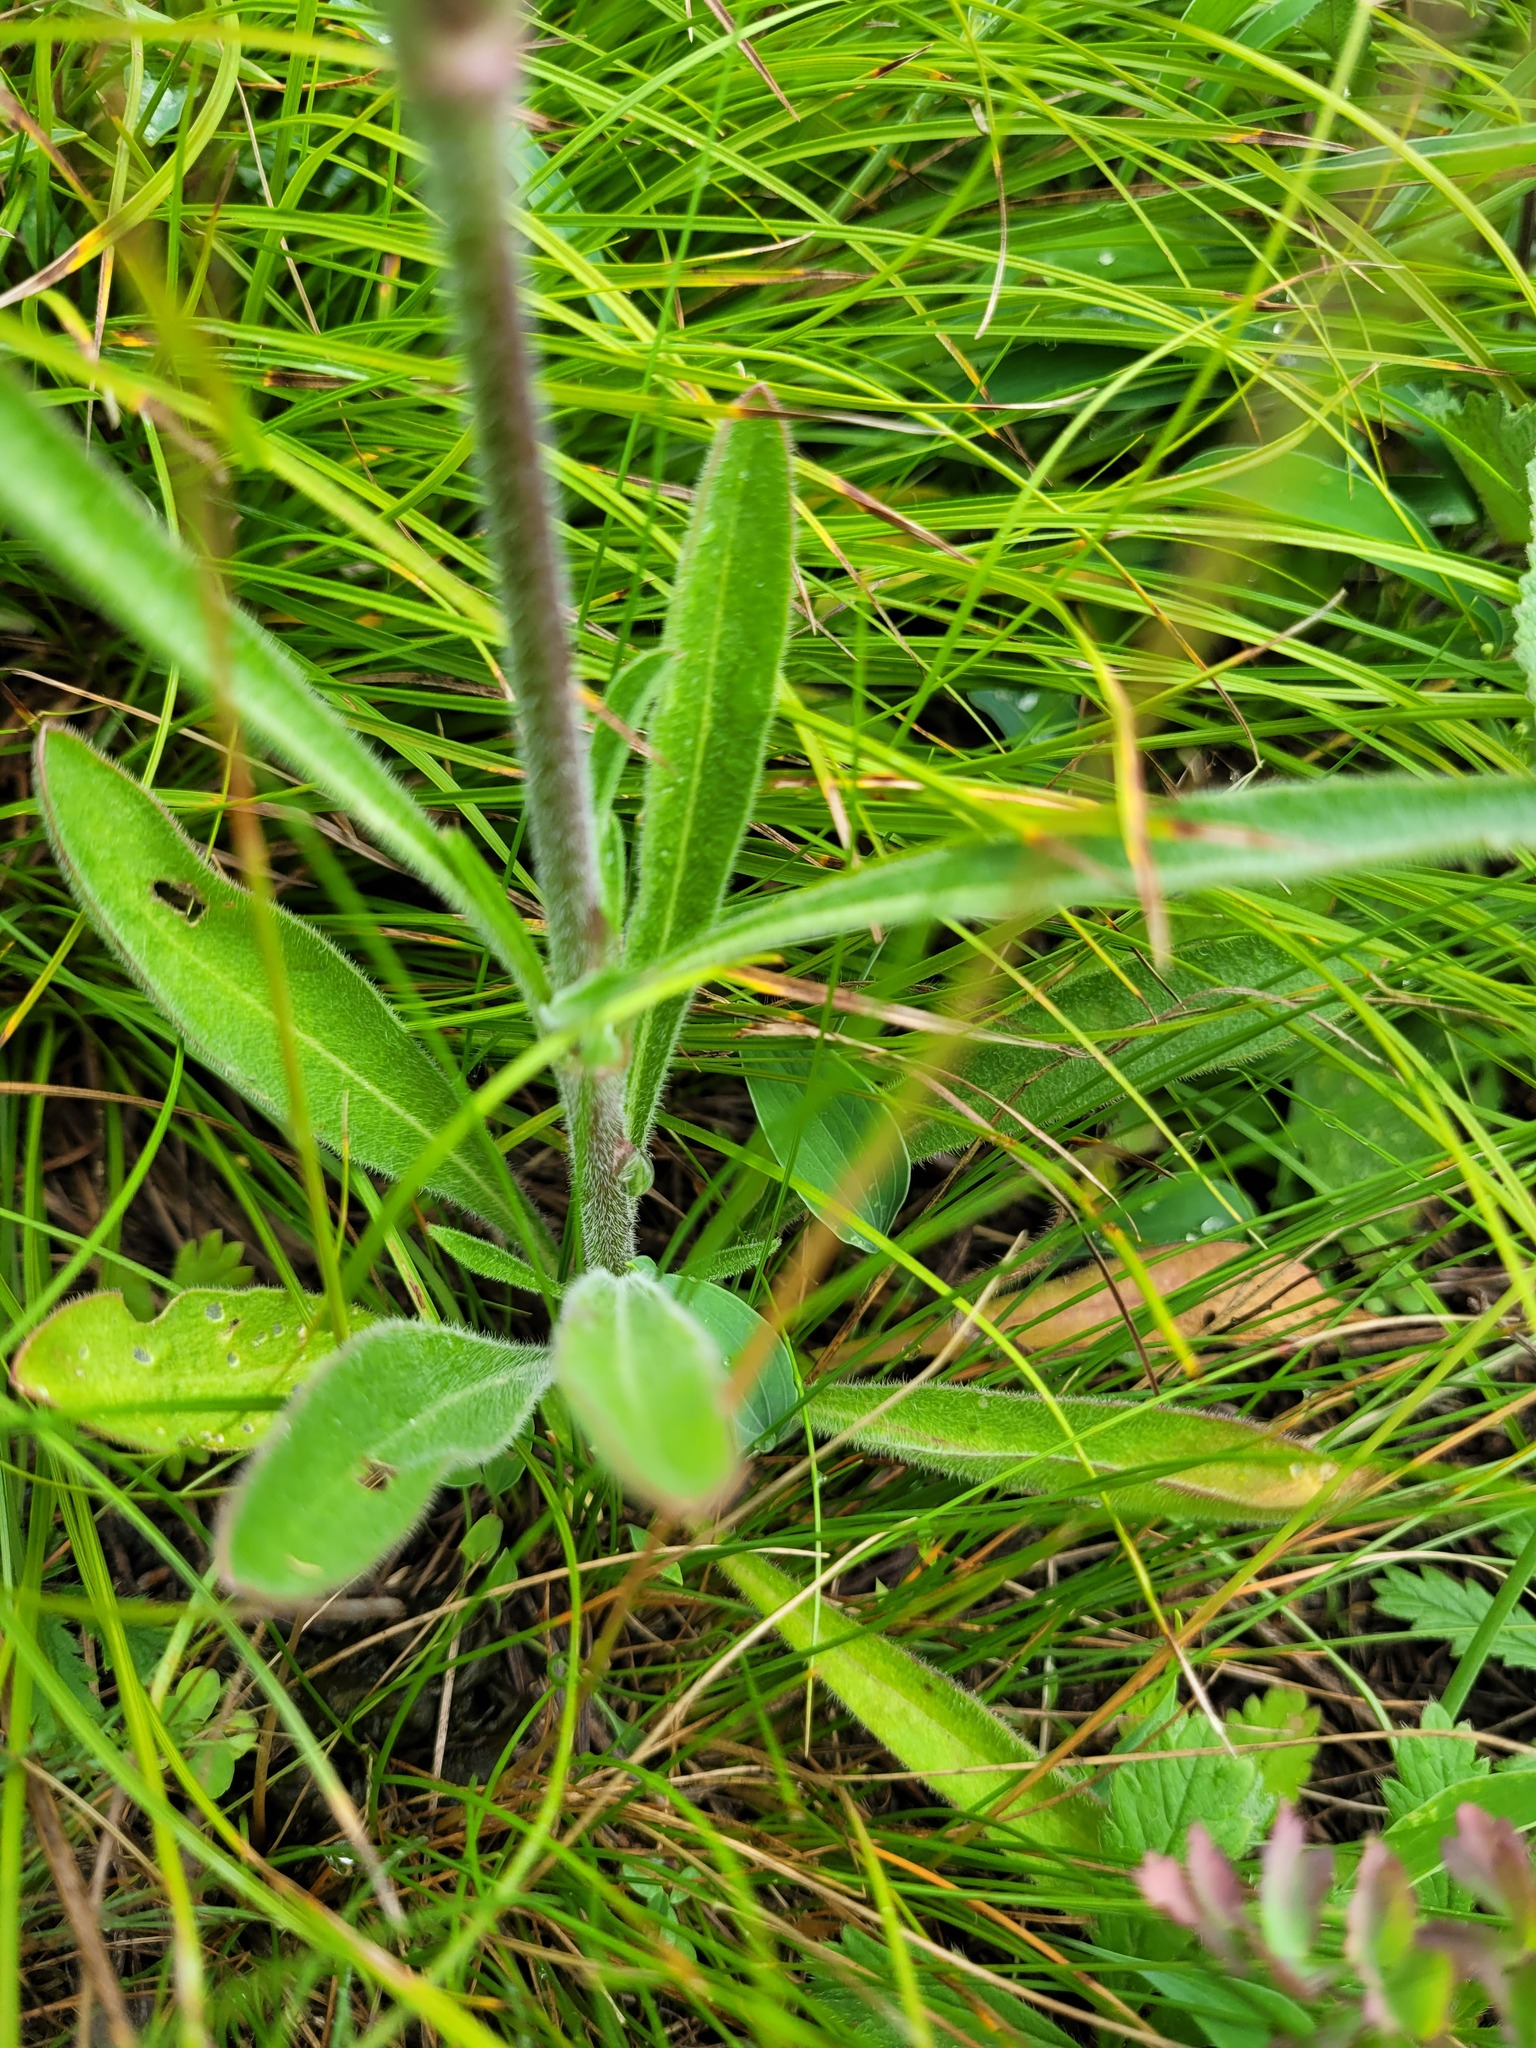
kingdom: Plantae
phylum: Tracheophyta
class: Magnoliopsida
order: Caryophyllales
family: Caryophyllaceae
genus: Silene
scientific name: Silene chersonensis
